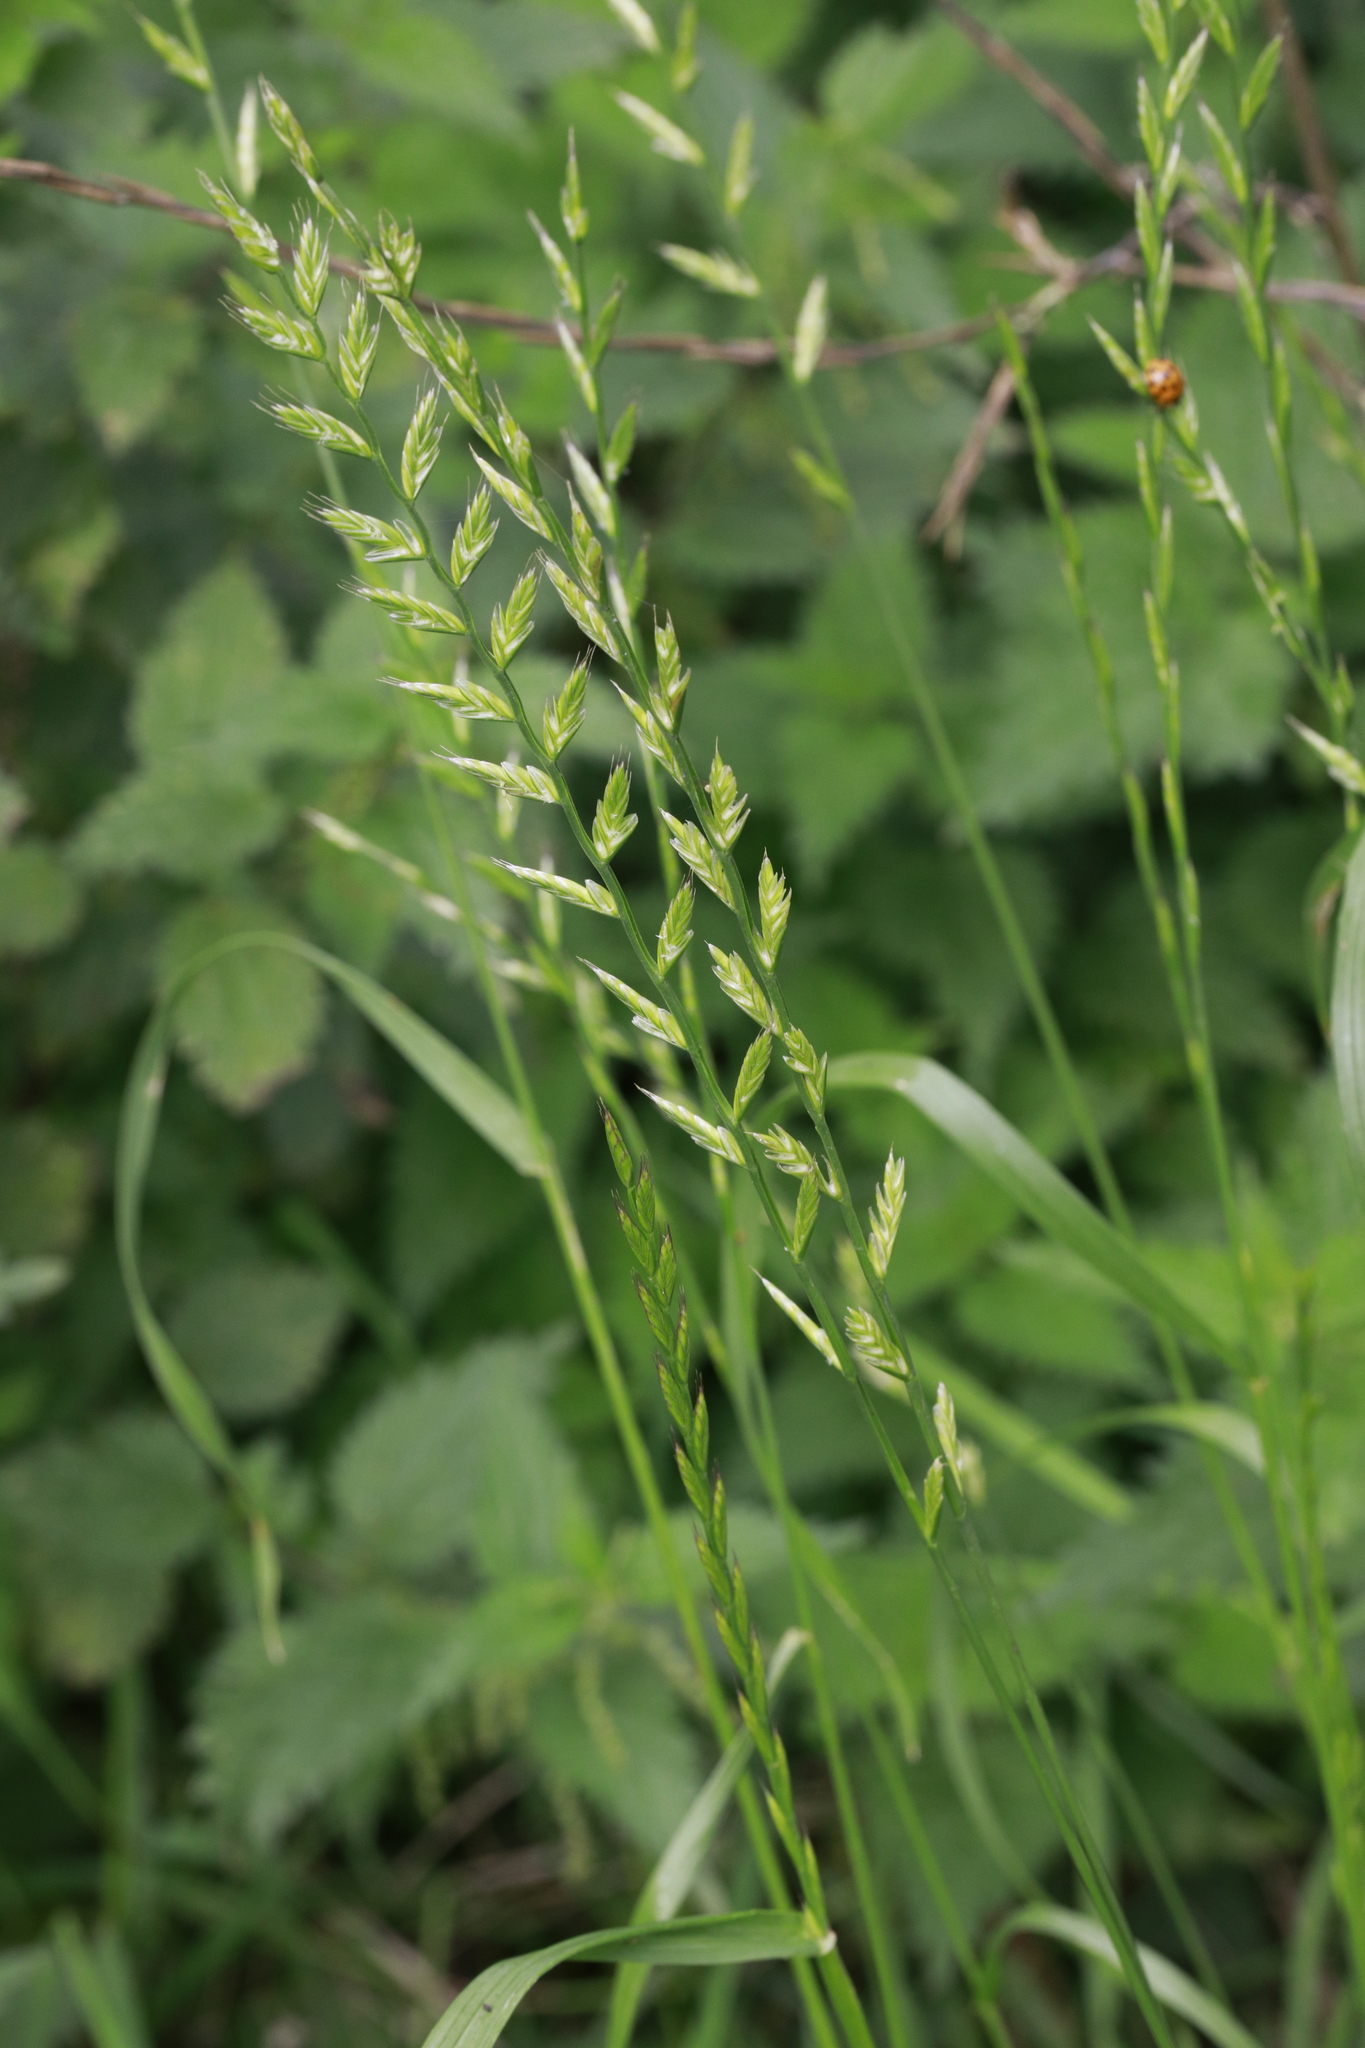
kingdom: Plantae
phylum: Tracheophyta
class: Liliopsida
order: Poales
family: Poaceae
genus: Lolium
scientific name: Lolium multiflorum
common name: Annual ryegrass
